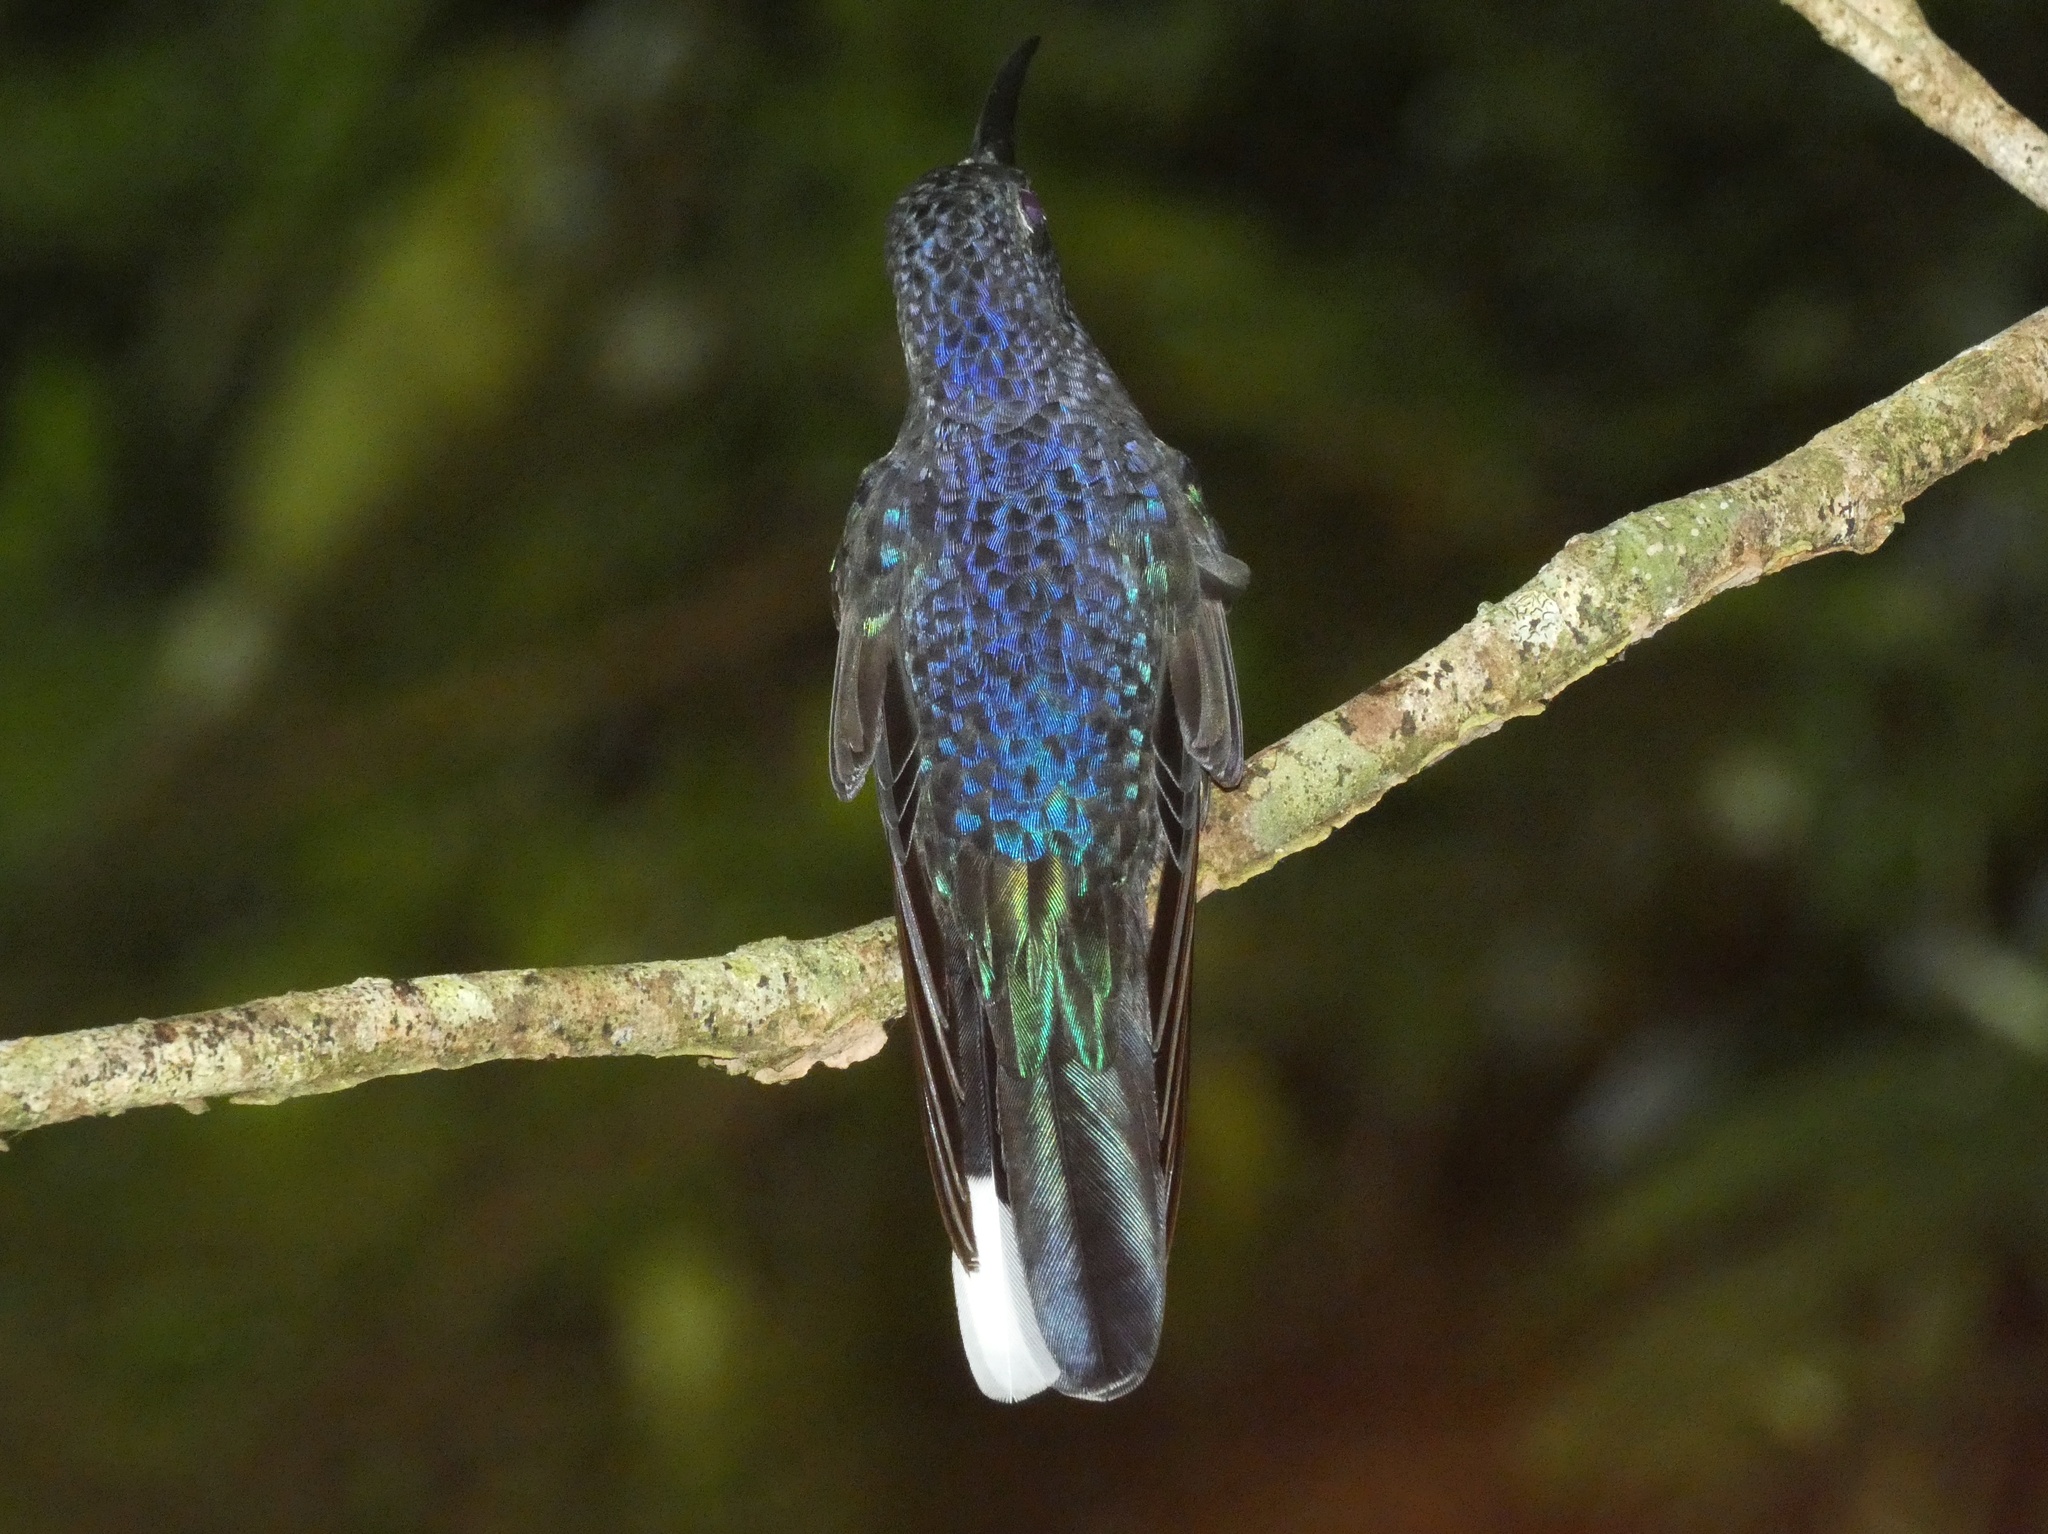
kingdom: Animalia
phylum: Chordata
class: Aves
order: Apodiformes
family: Trochilidae
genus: Campylopterus
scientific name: Campylopterus hemileucurus
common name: Violet sabrewing
